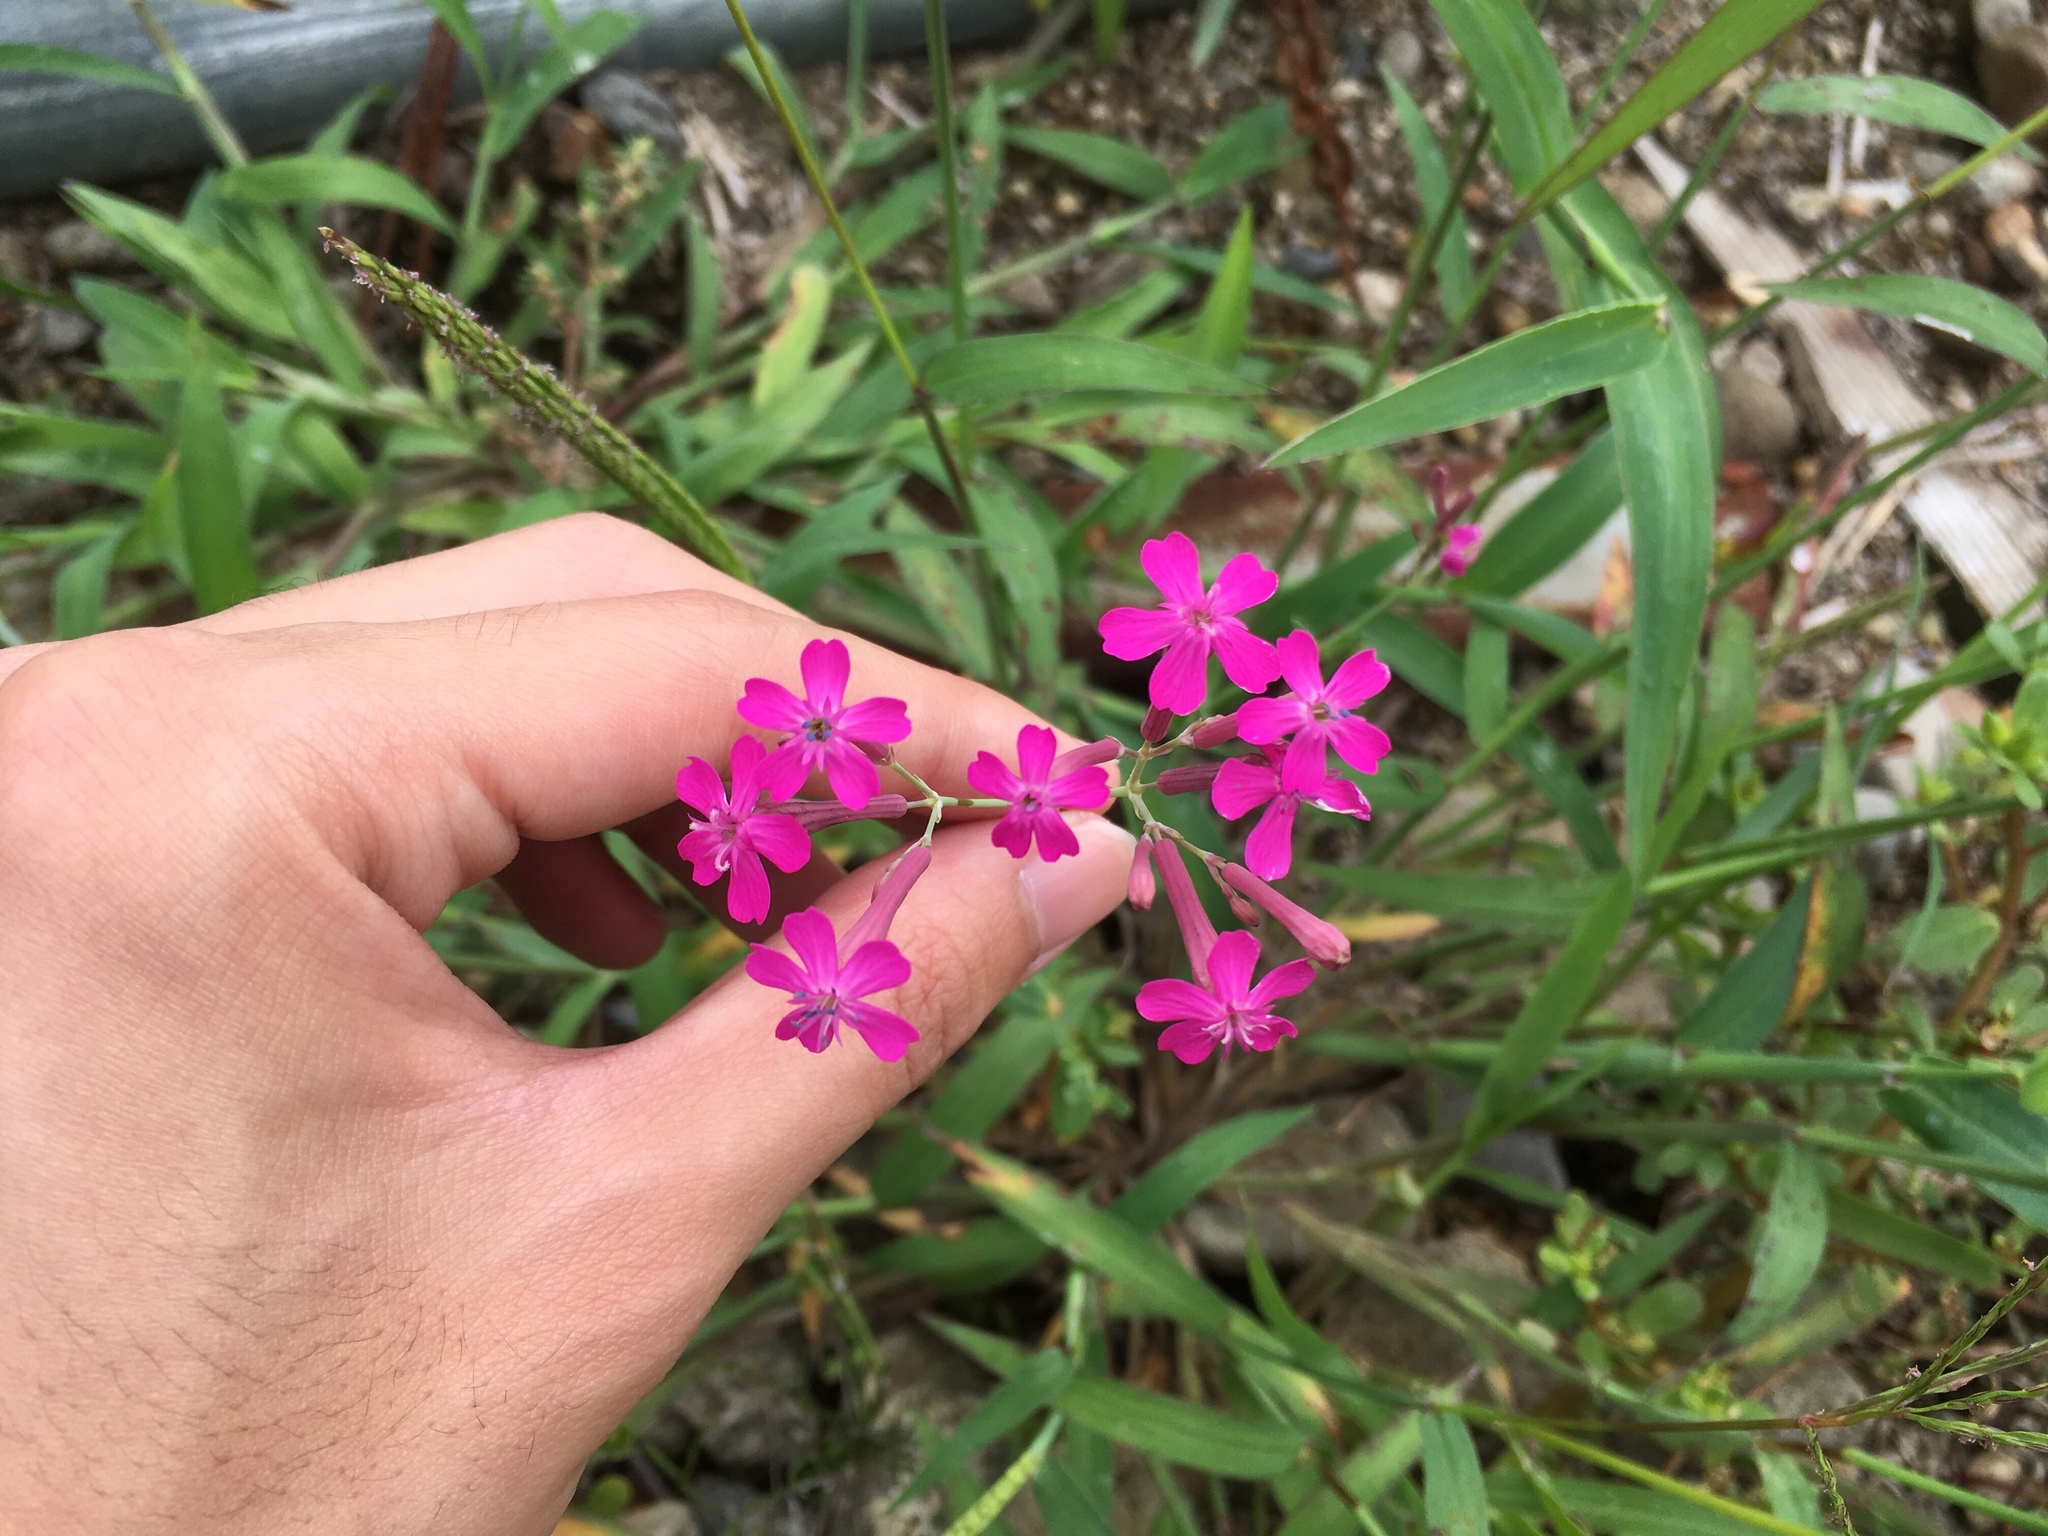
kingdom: Plantae
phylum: Tracheophyta
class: Magnoliopsida
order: Caryophyllales
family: Caryophyllaceae
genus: Atocion
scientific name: Atocion armeria
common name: Sweet william catchfly
